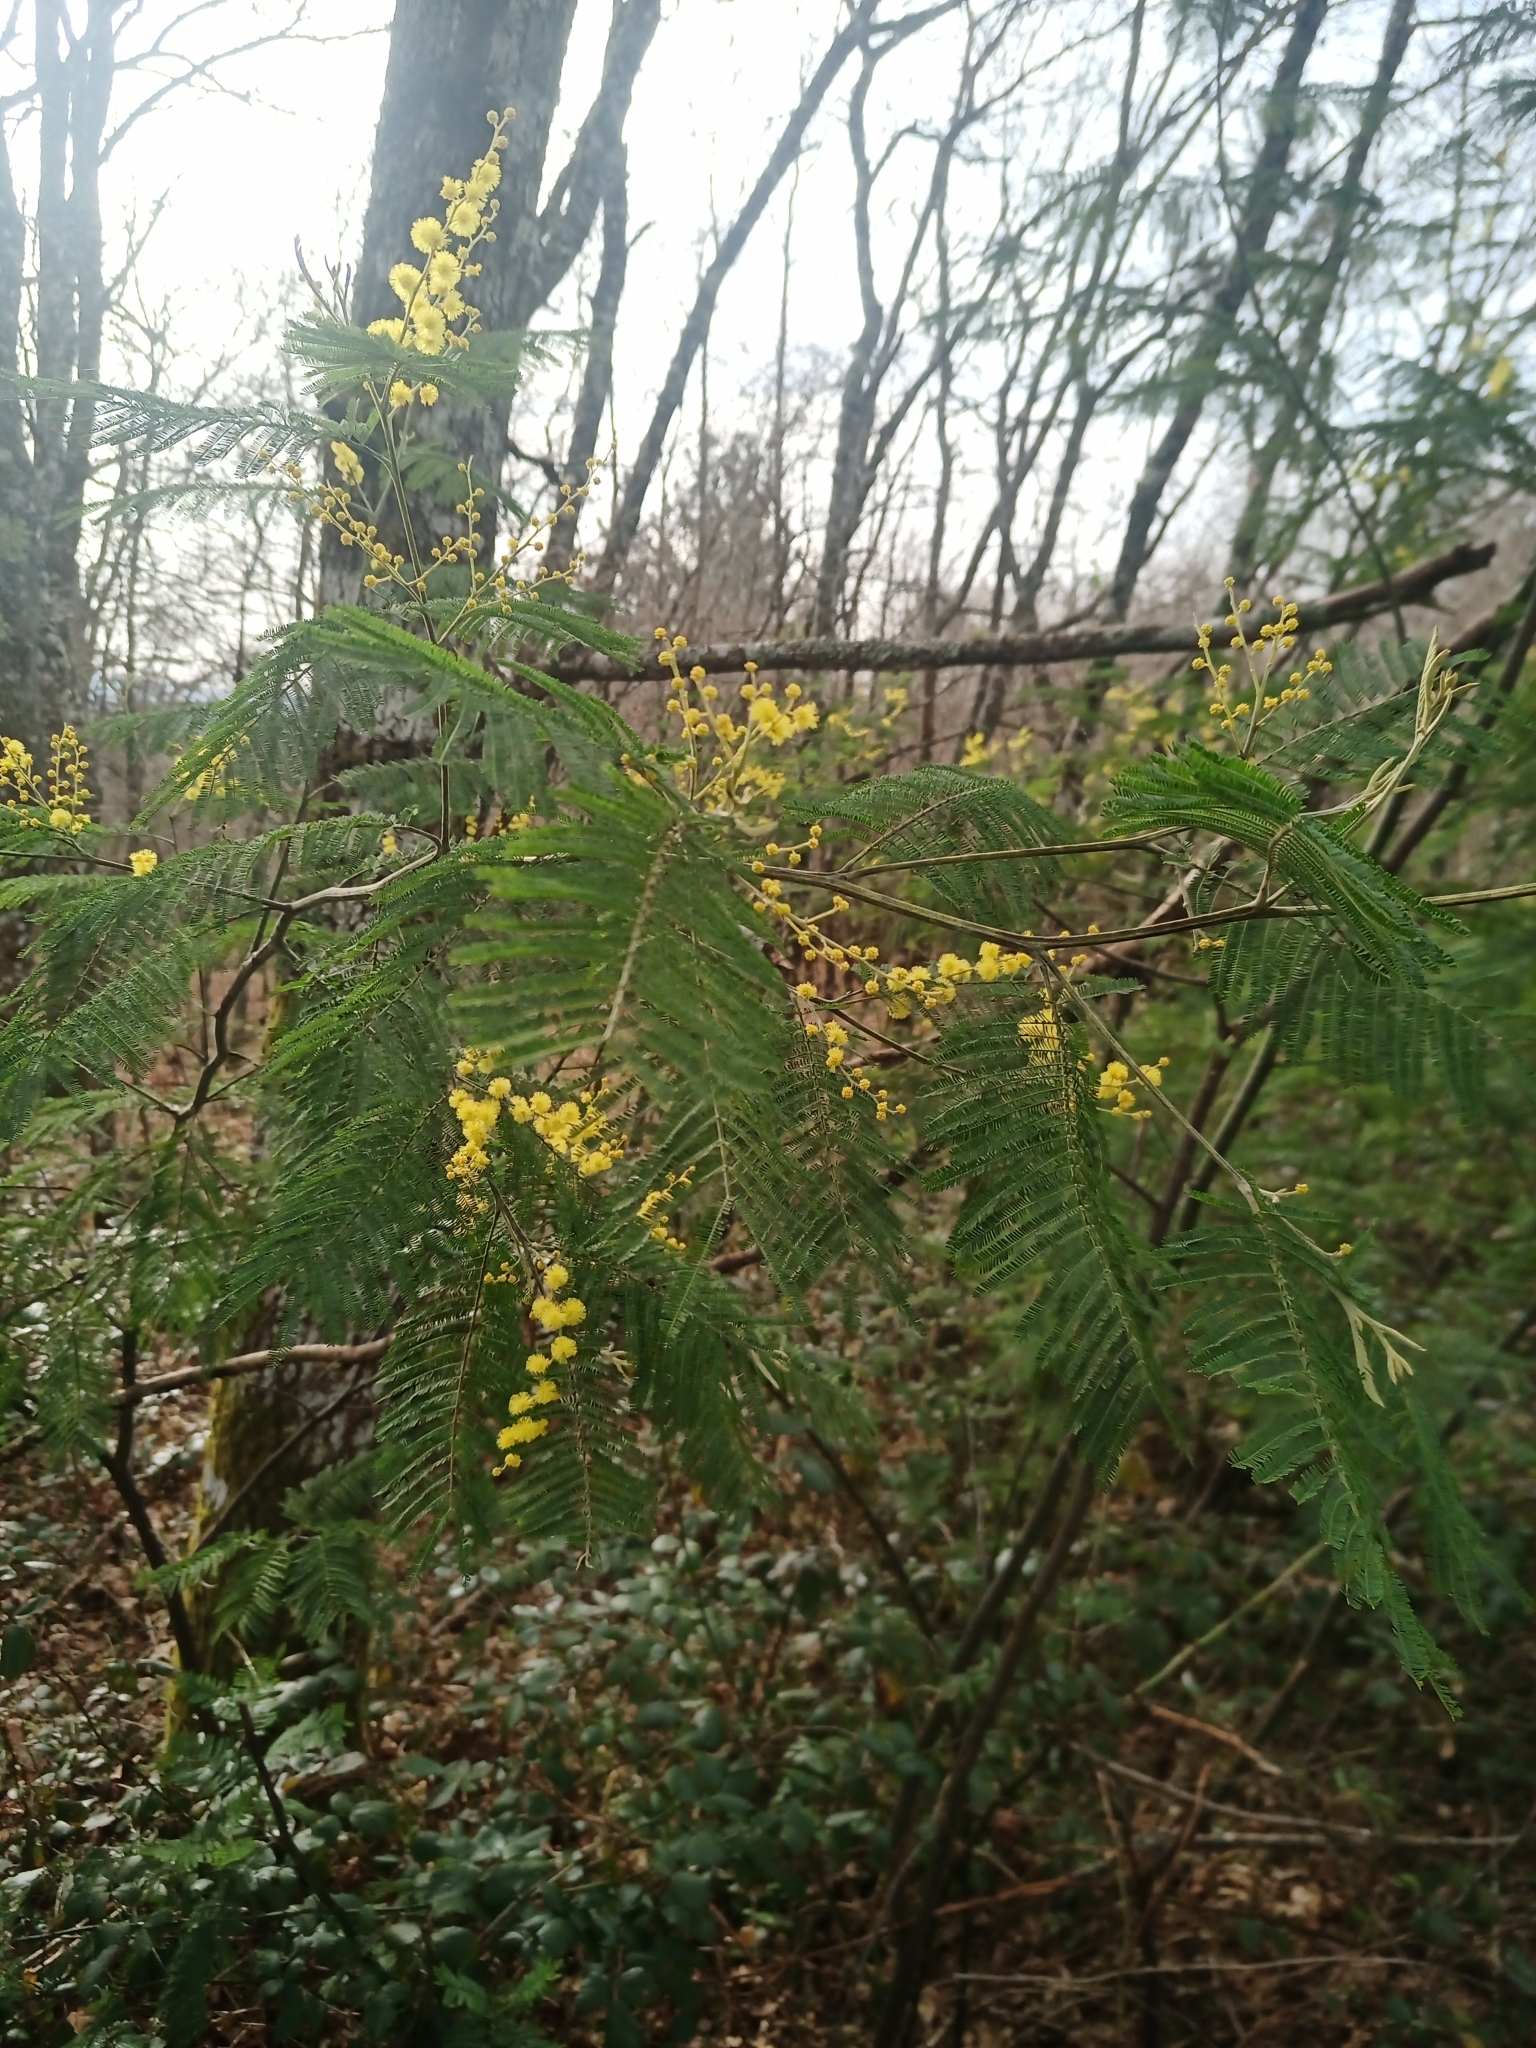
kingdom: Plantae
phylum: Tracheophyta
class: Magnoliopsida
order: Fabales
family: Fabaceae
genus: Acacia
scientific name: Acacia dealbata
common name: Silver wattle
